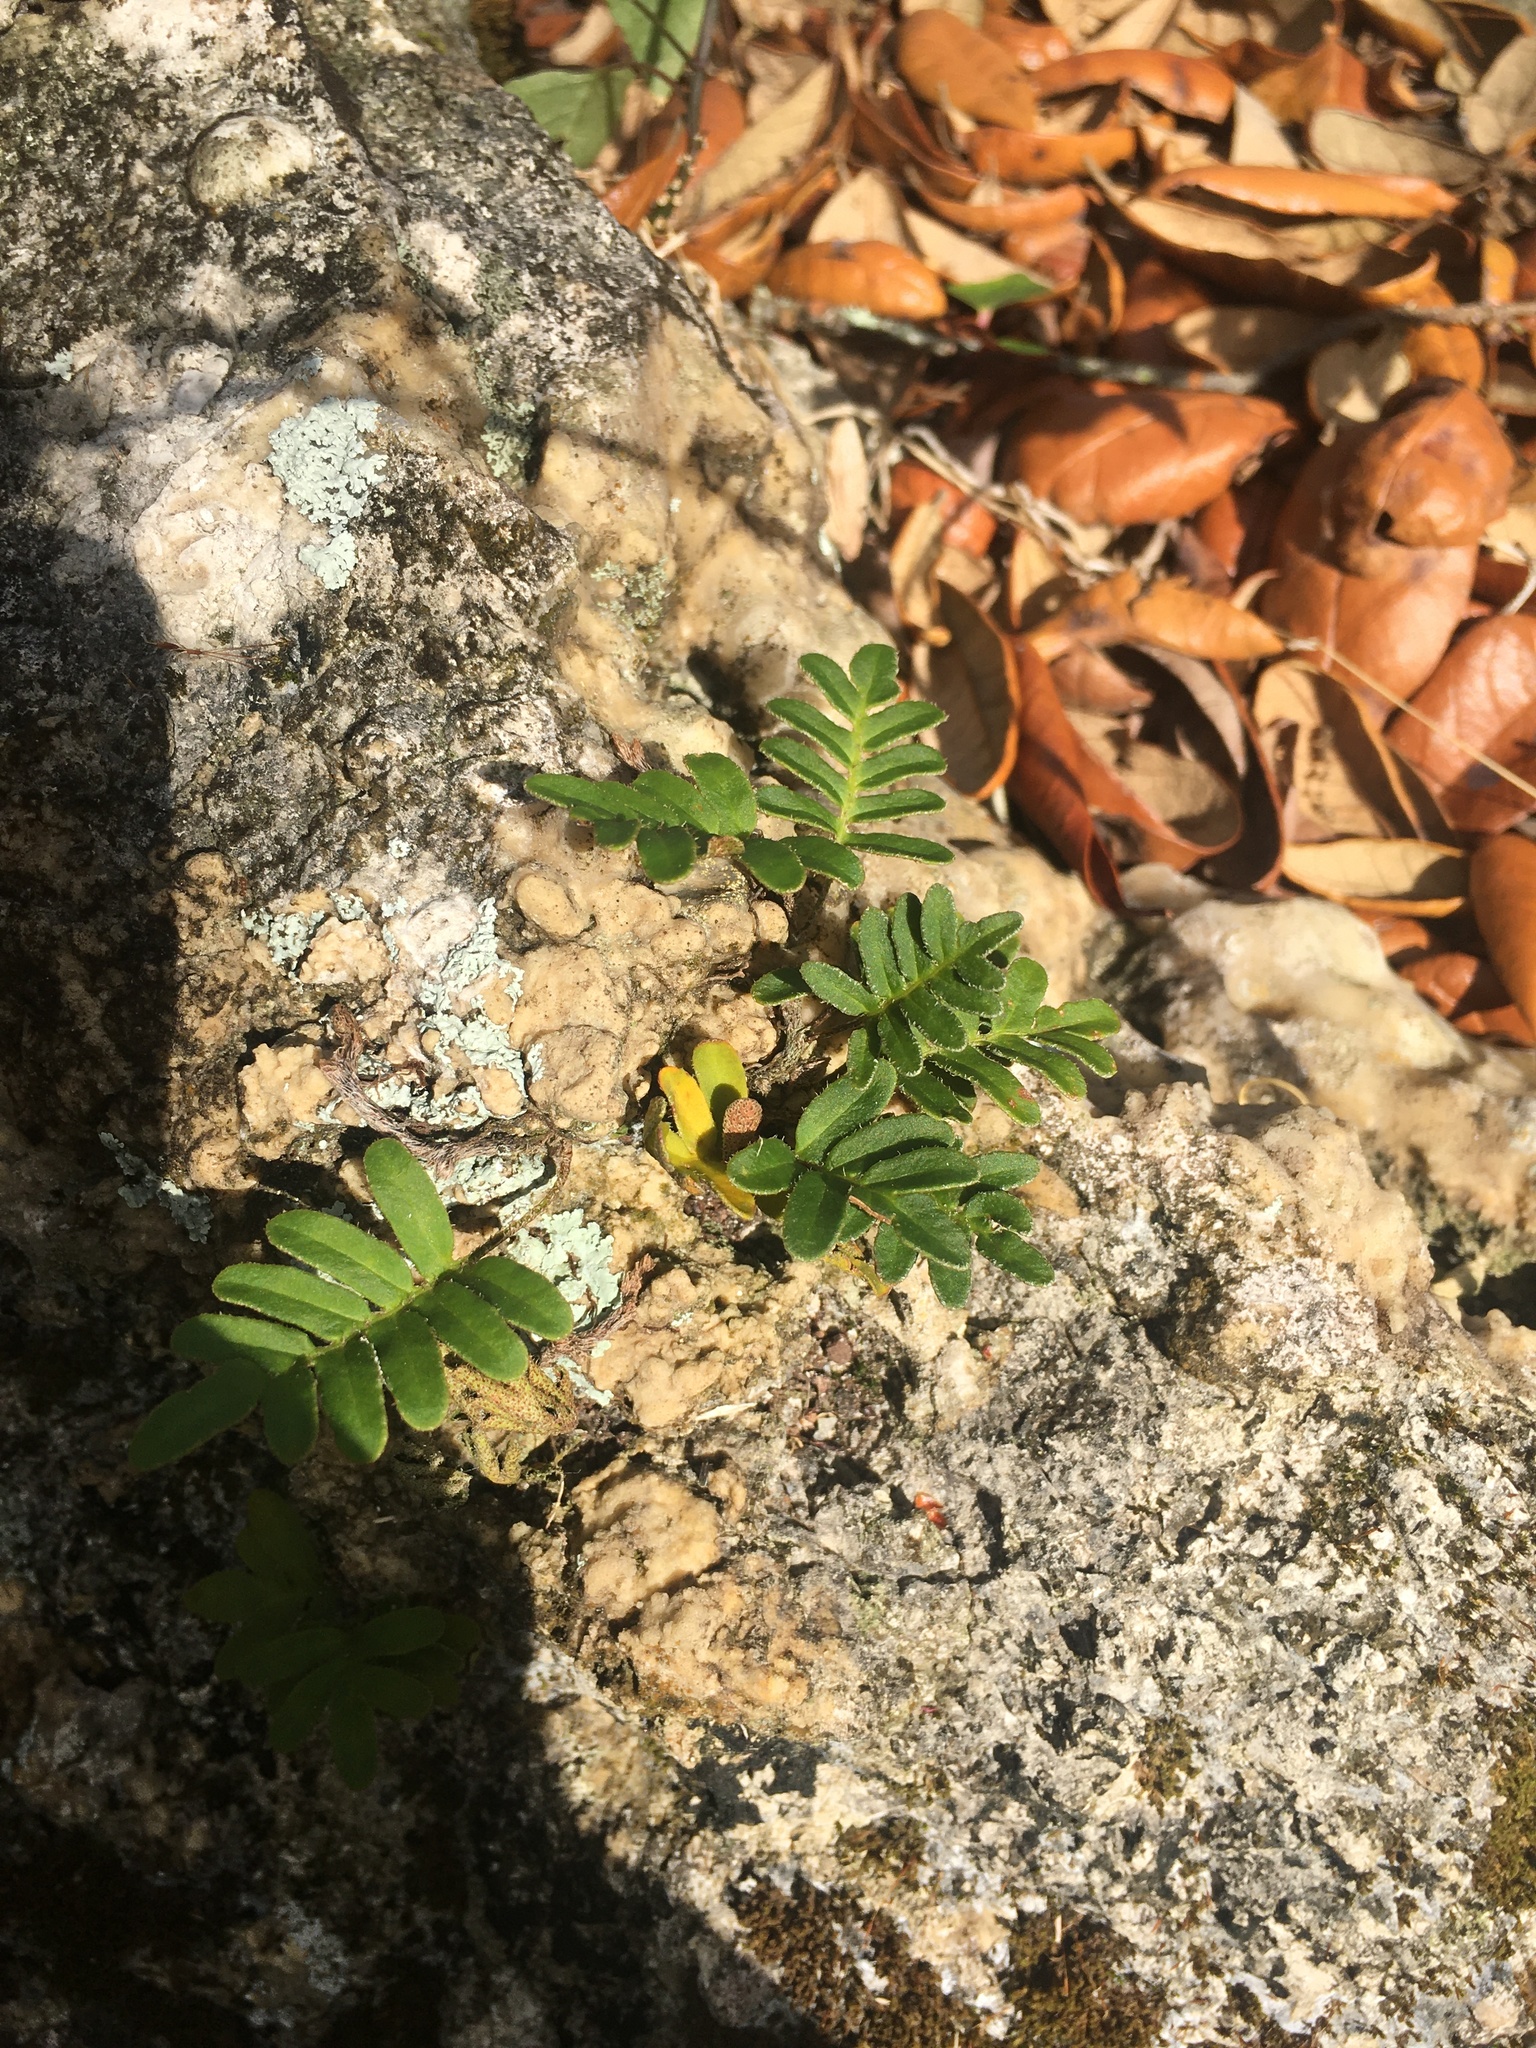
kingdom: Plantae
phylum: Tracheophyta
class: Polypodiopsida
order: Polypodiales
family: Polypodiaceae
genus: Pleopeltis
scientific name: Pleopeltis michauxiana
